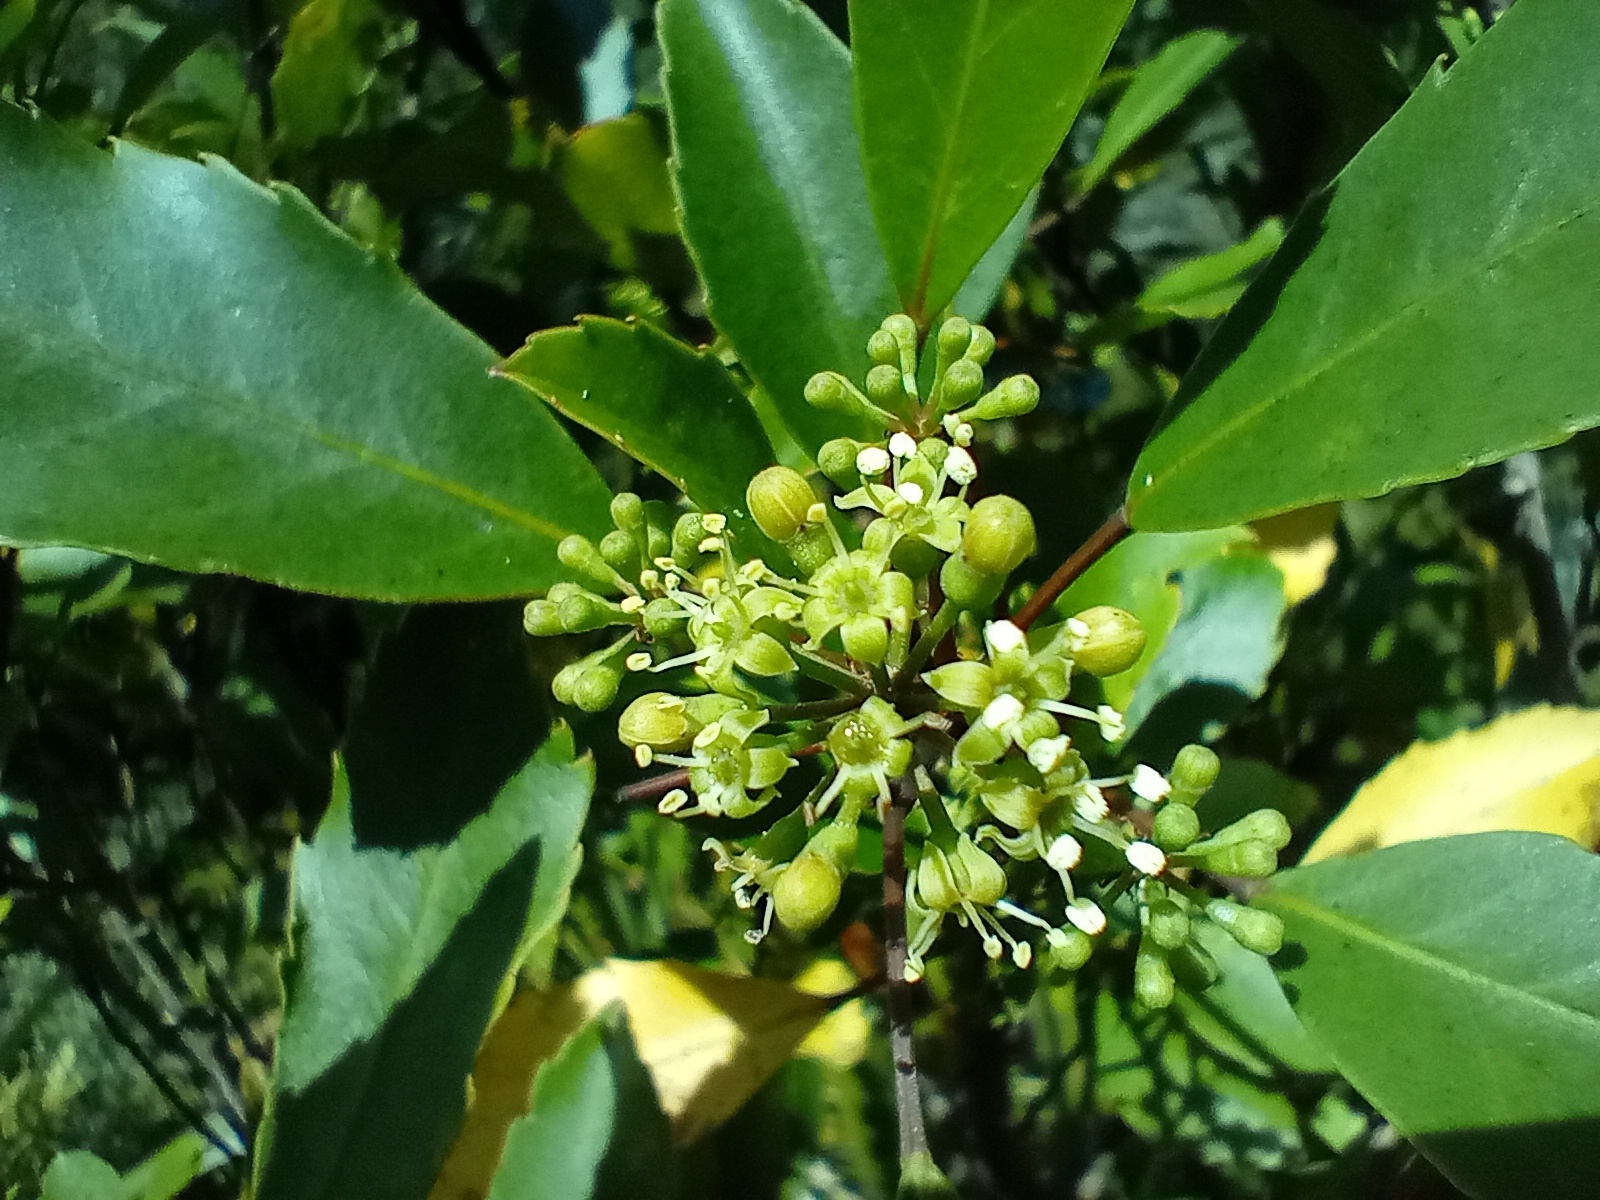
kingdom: Plantae
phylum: Tracheophyta
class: Magnoliopsida
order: Apiales
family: Araliaceae
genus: Raukaua
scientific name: Raukaua simplex
